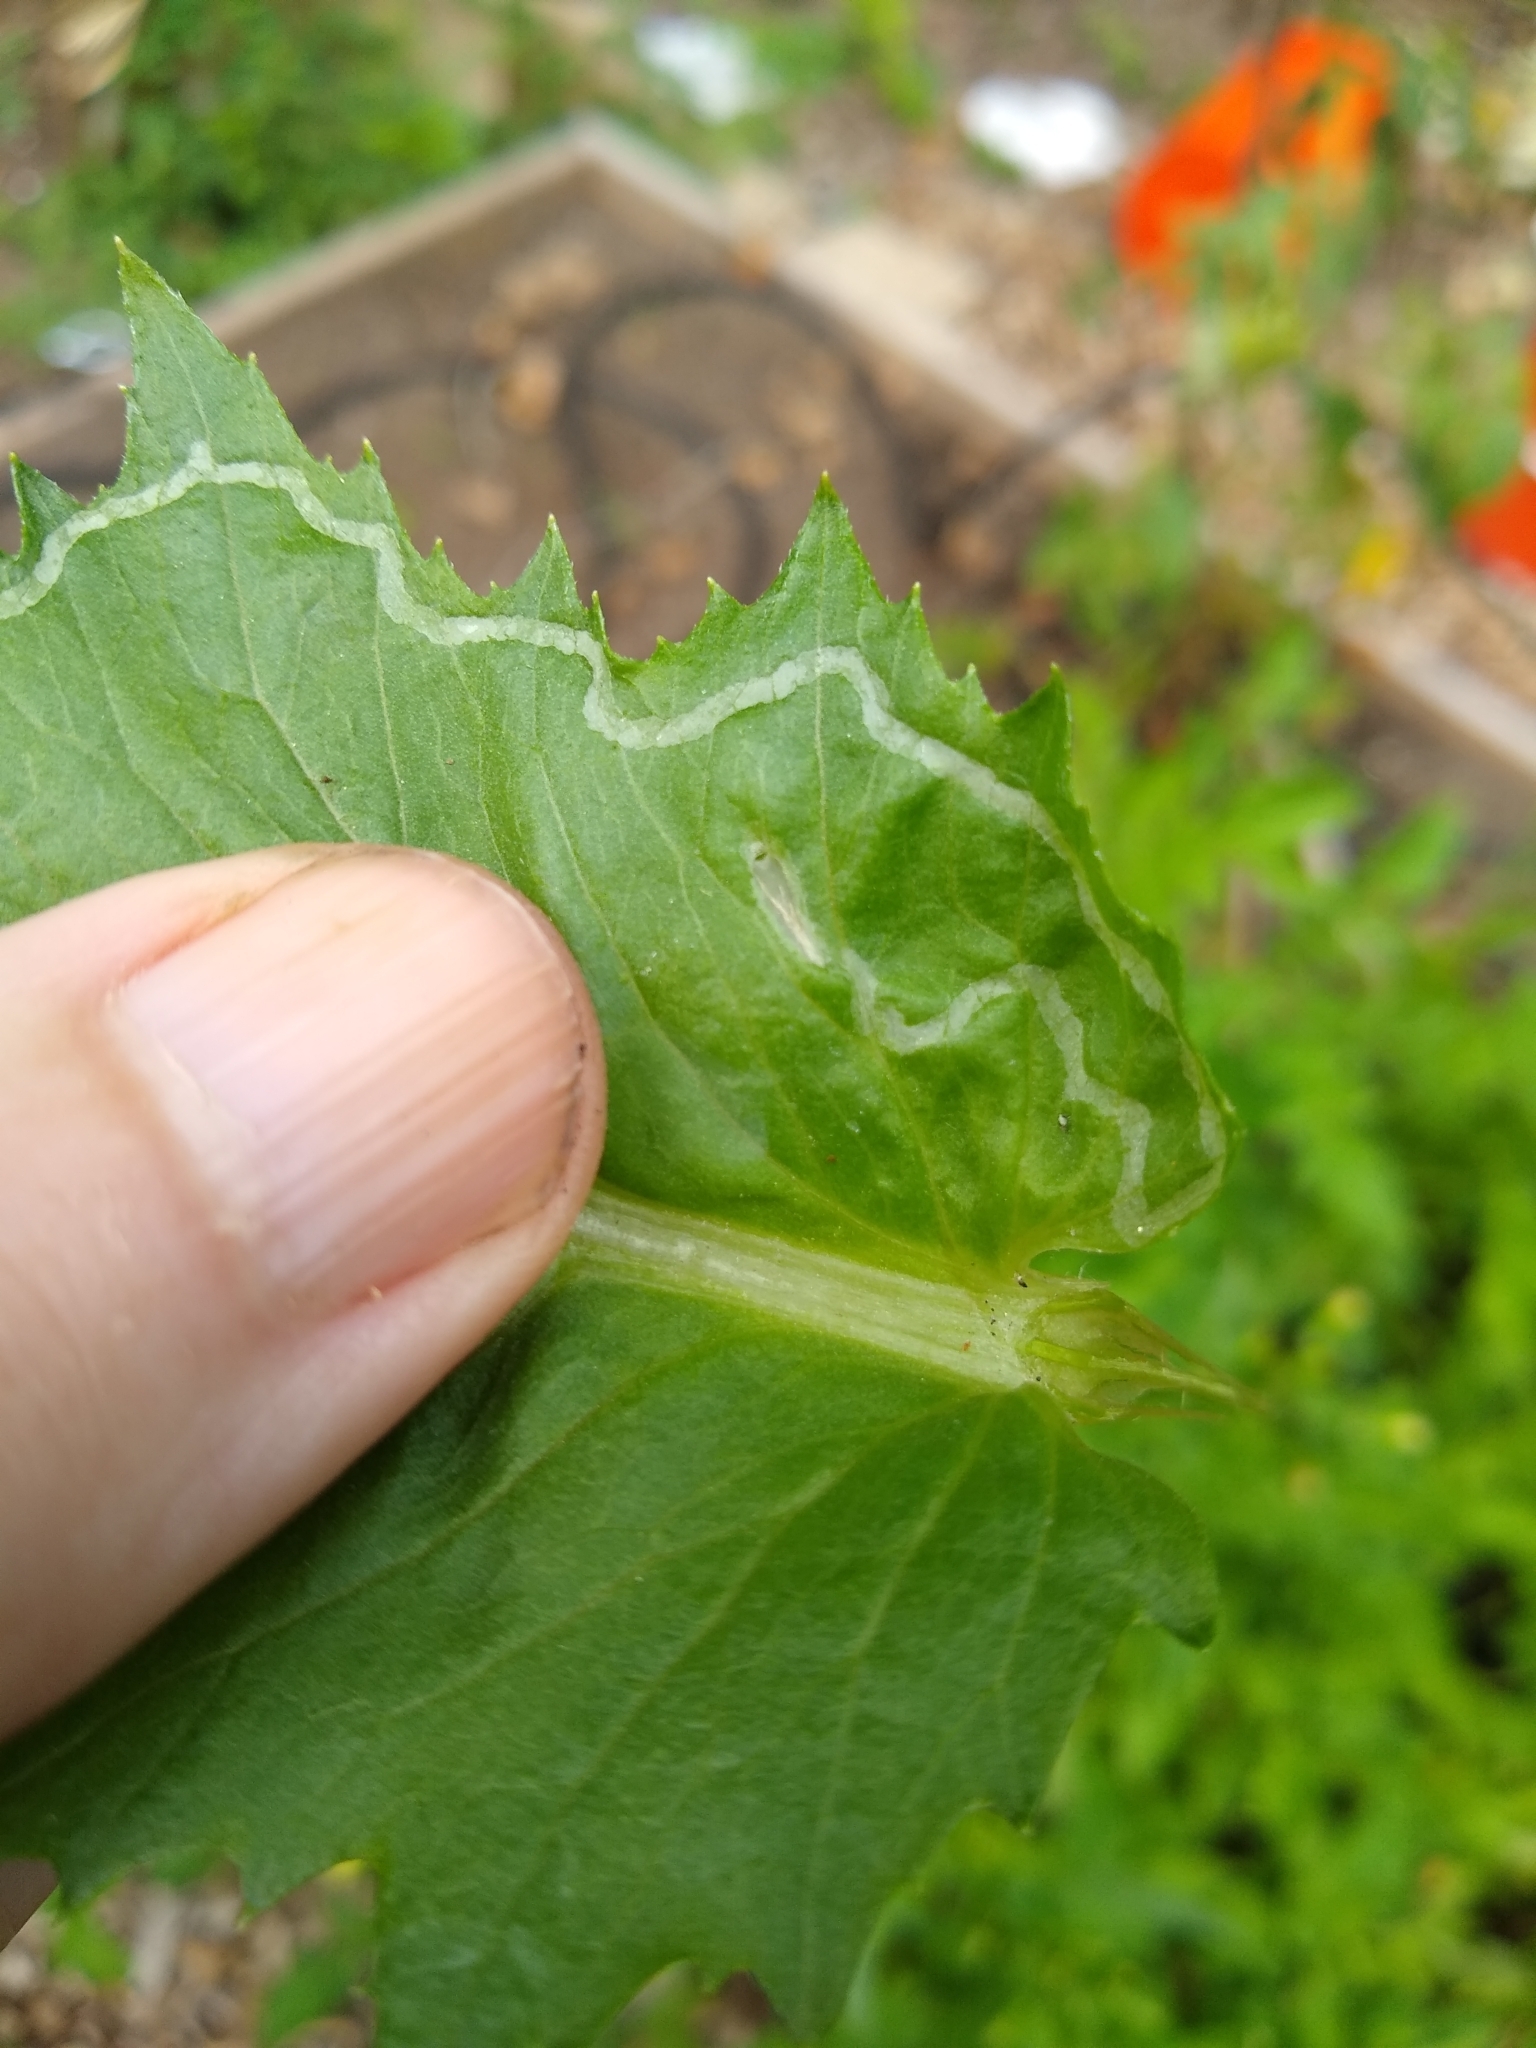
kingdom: Animalia
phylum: Arthropoda
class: Insecta
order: Lepidoptera
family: Gracillariidae
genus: Phyllocnistis
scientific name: Phyllocnistis insignis
